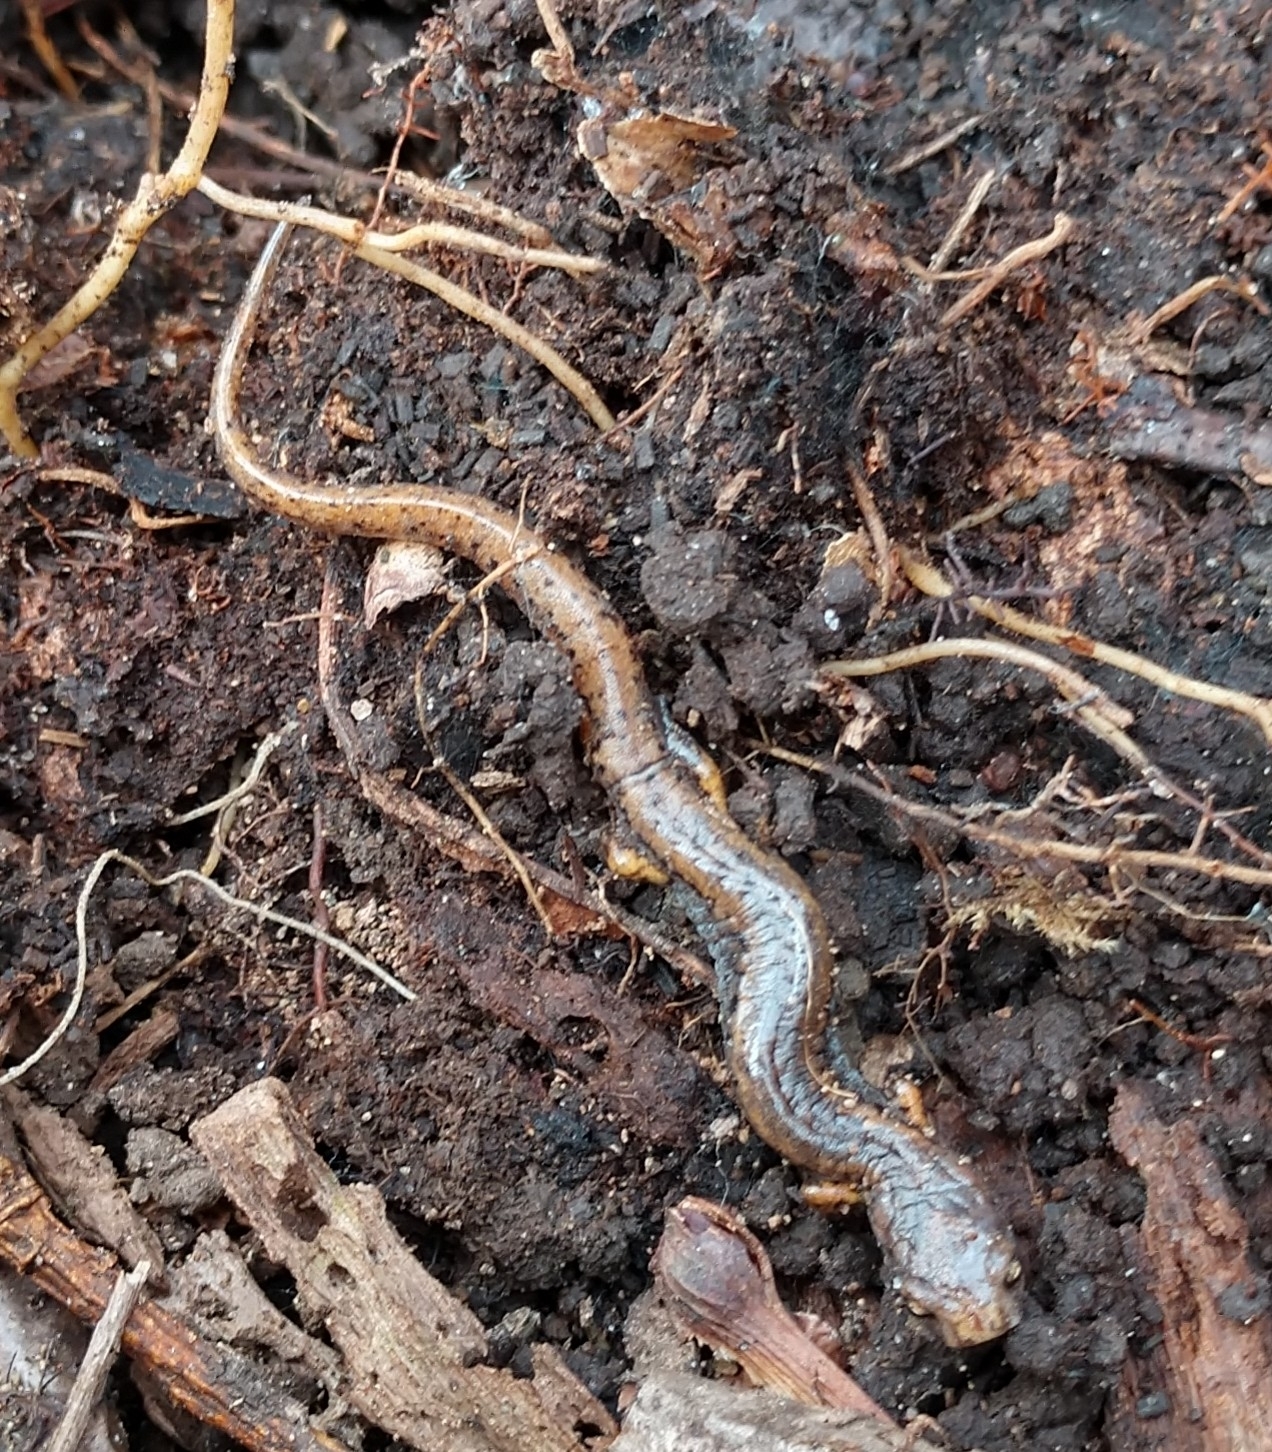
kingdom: Animalia
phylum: Chordata
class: Amphibia
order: Caudata
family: Plethodontidae
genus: Hemidactylium
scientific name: Hemidactylium scutatum
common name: Four-toed salamander
